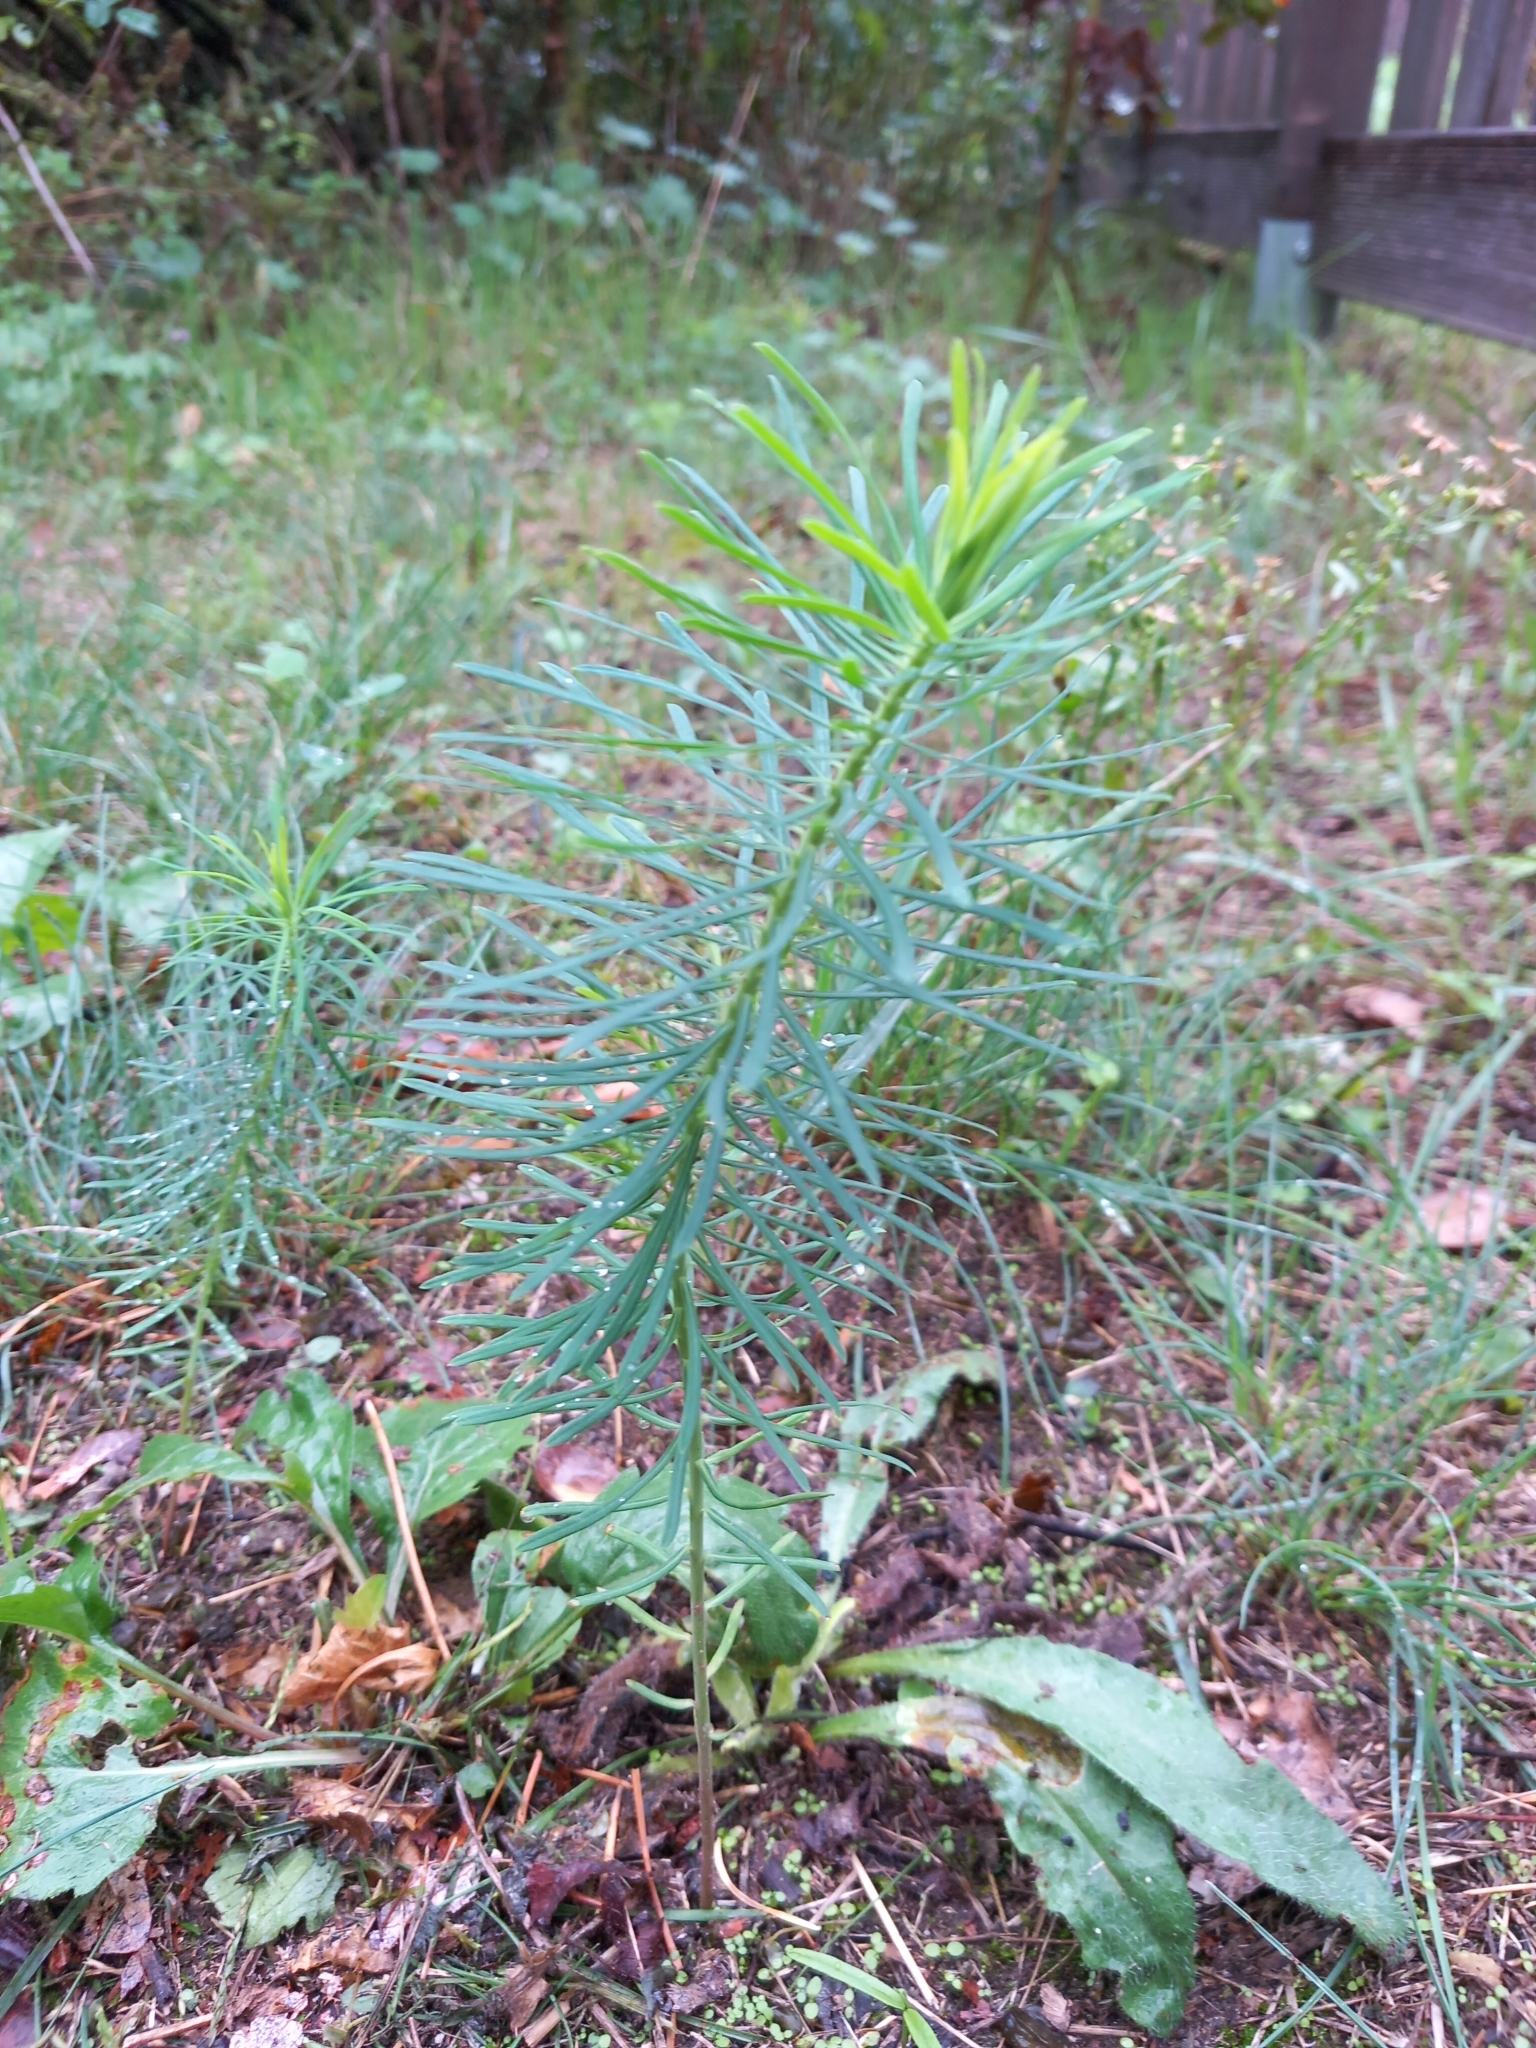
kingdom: Plantae
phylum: Tracheophyta
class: Magnoliopsida
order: Malpighiales
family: Euphorbiaceae
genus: Euphorbia
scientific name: Euphorbia cyparissias
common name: Cypress spurge
